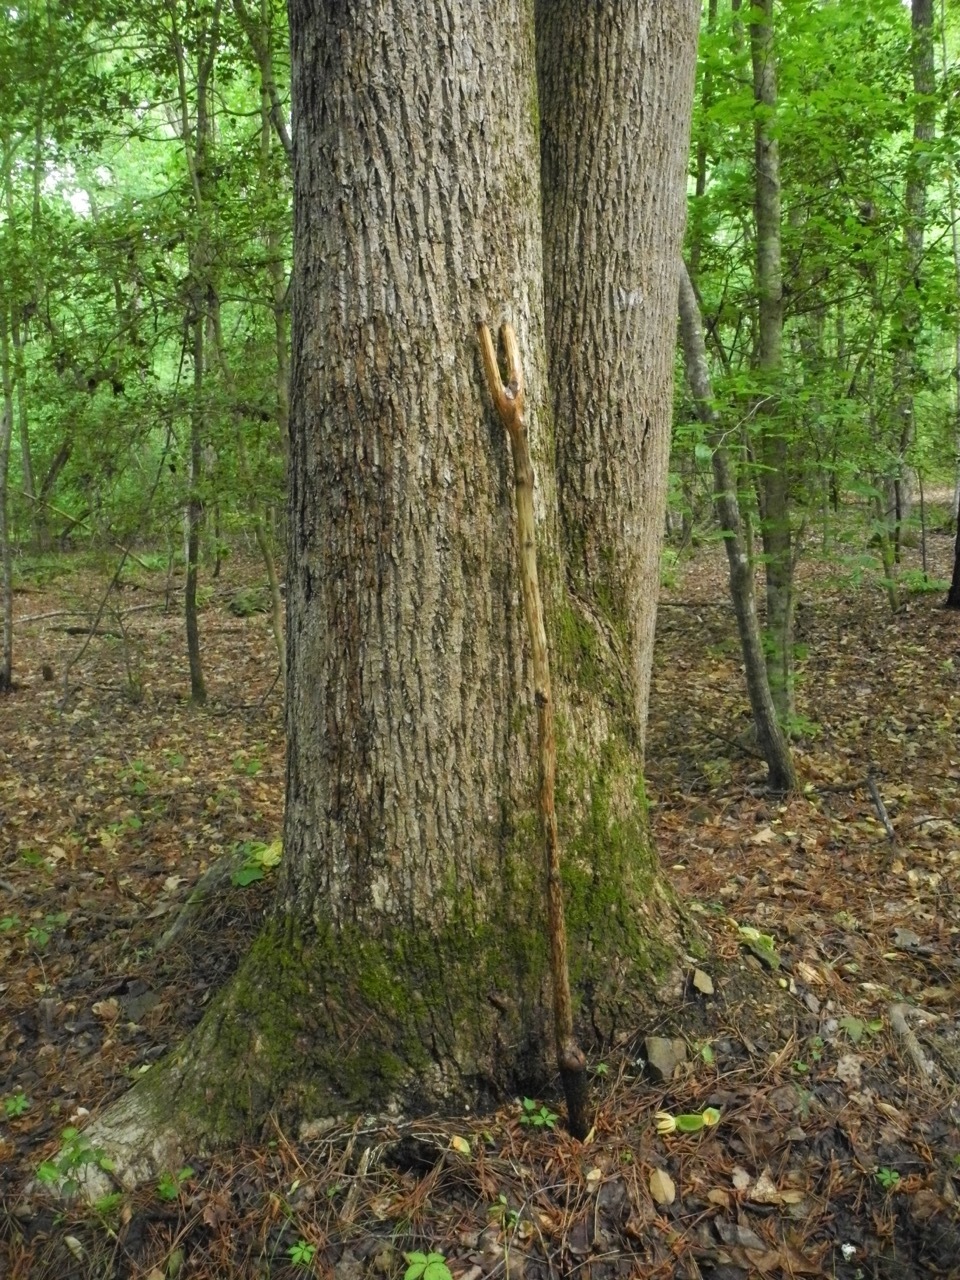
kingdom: Plantae
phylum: Tracheophyta
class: Magnoliopsida
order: Magnoliales
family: Magnoliaceae
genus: Liriodendron
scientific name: Liriodendron tulipifera
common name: Tulip tree
